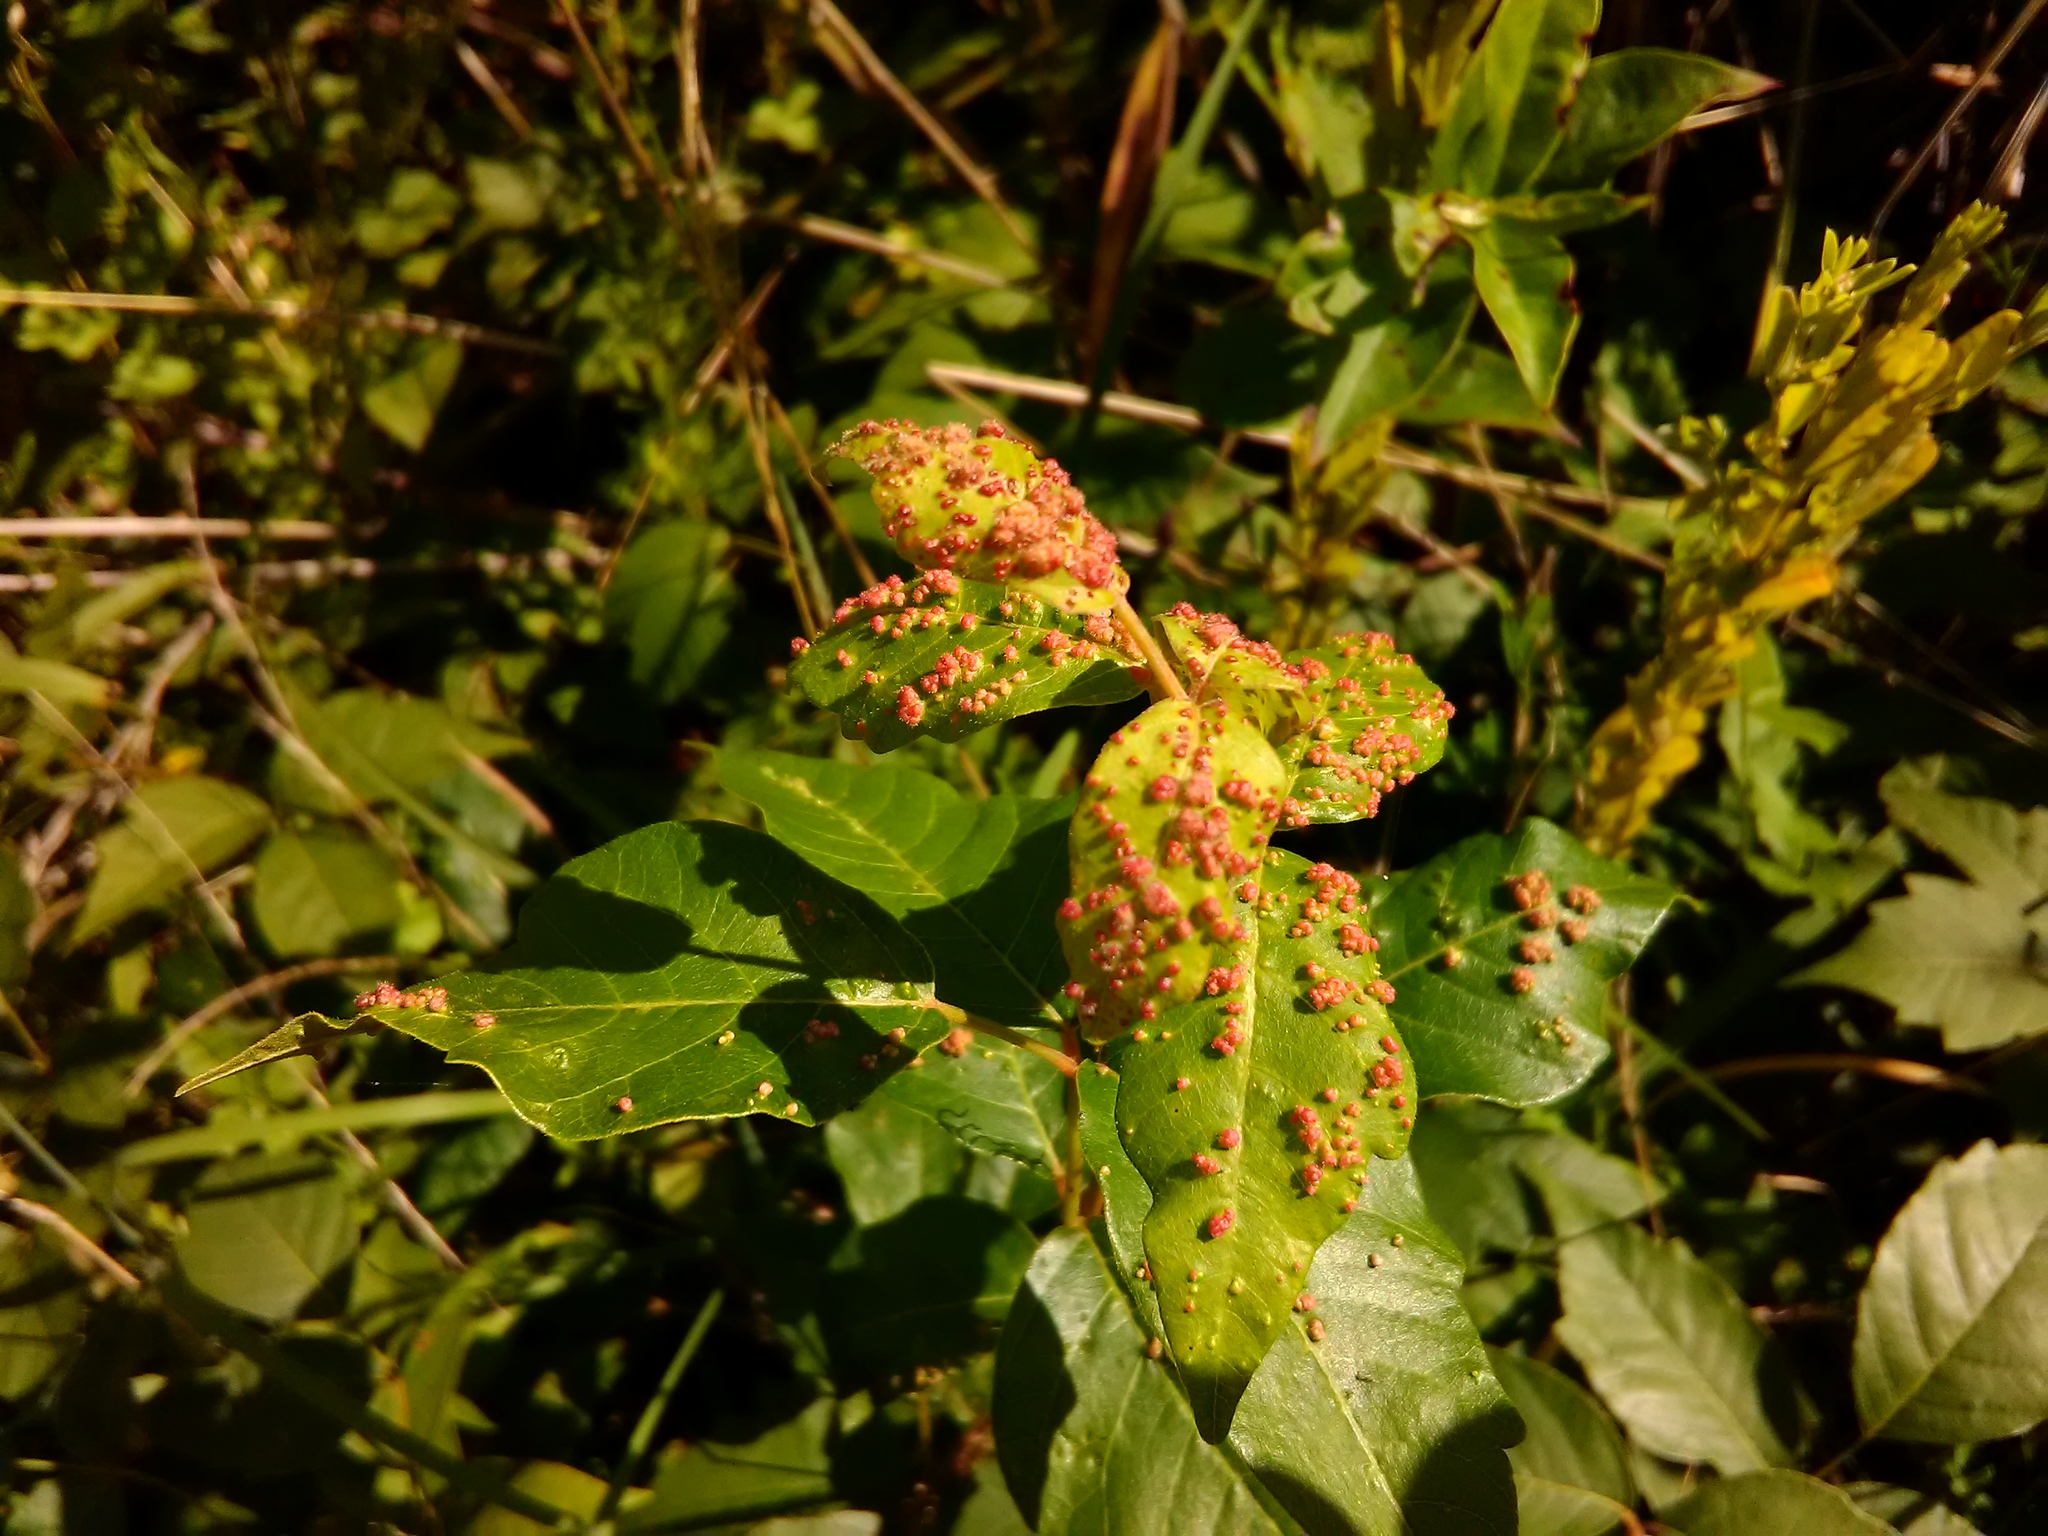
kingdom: Animalia
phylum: Arthropoda
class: Arachnida
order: Trombidiformes
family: Eriophyidae
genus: Aculops
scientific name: Aculops
